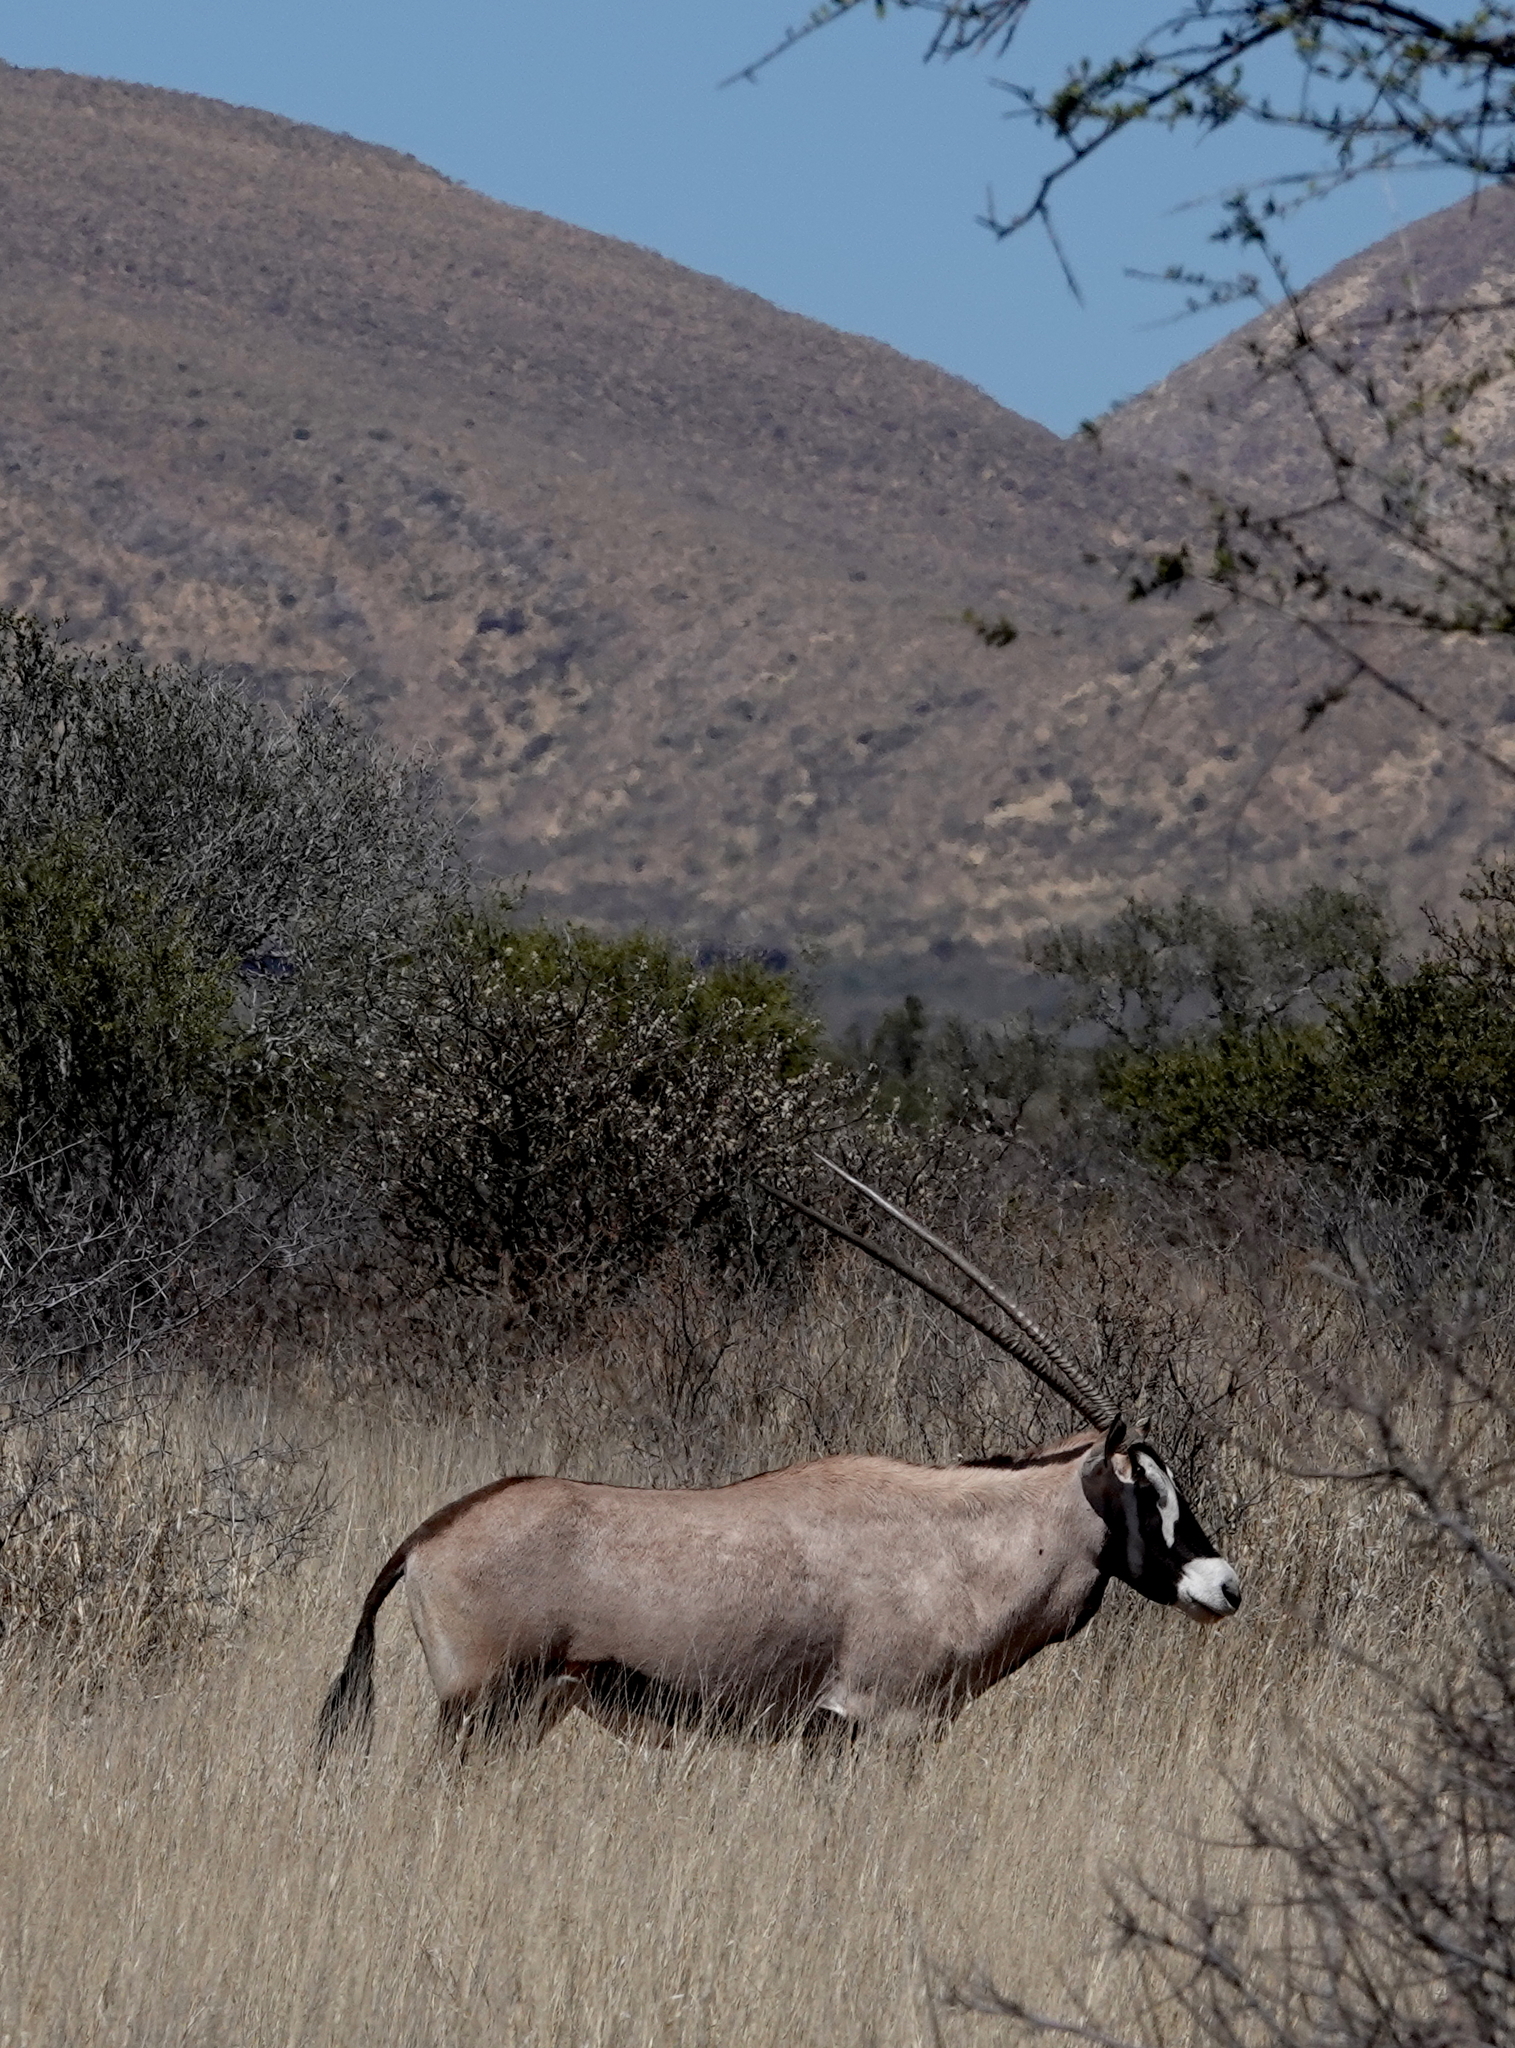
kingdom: Animalia
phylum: Chordata
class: Mammalia
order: Artiodactyla
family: Bovidae
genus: Oryx
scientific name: Oryx gazella
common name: Gemsbok
